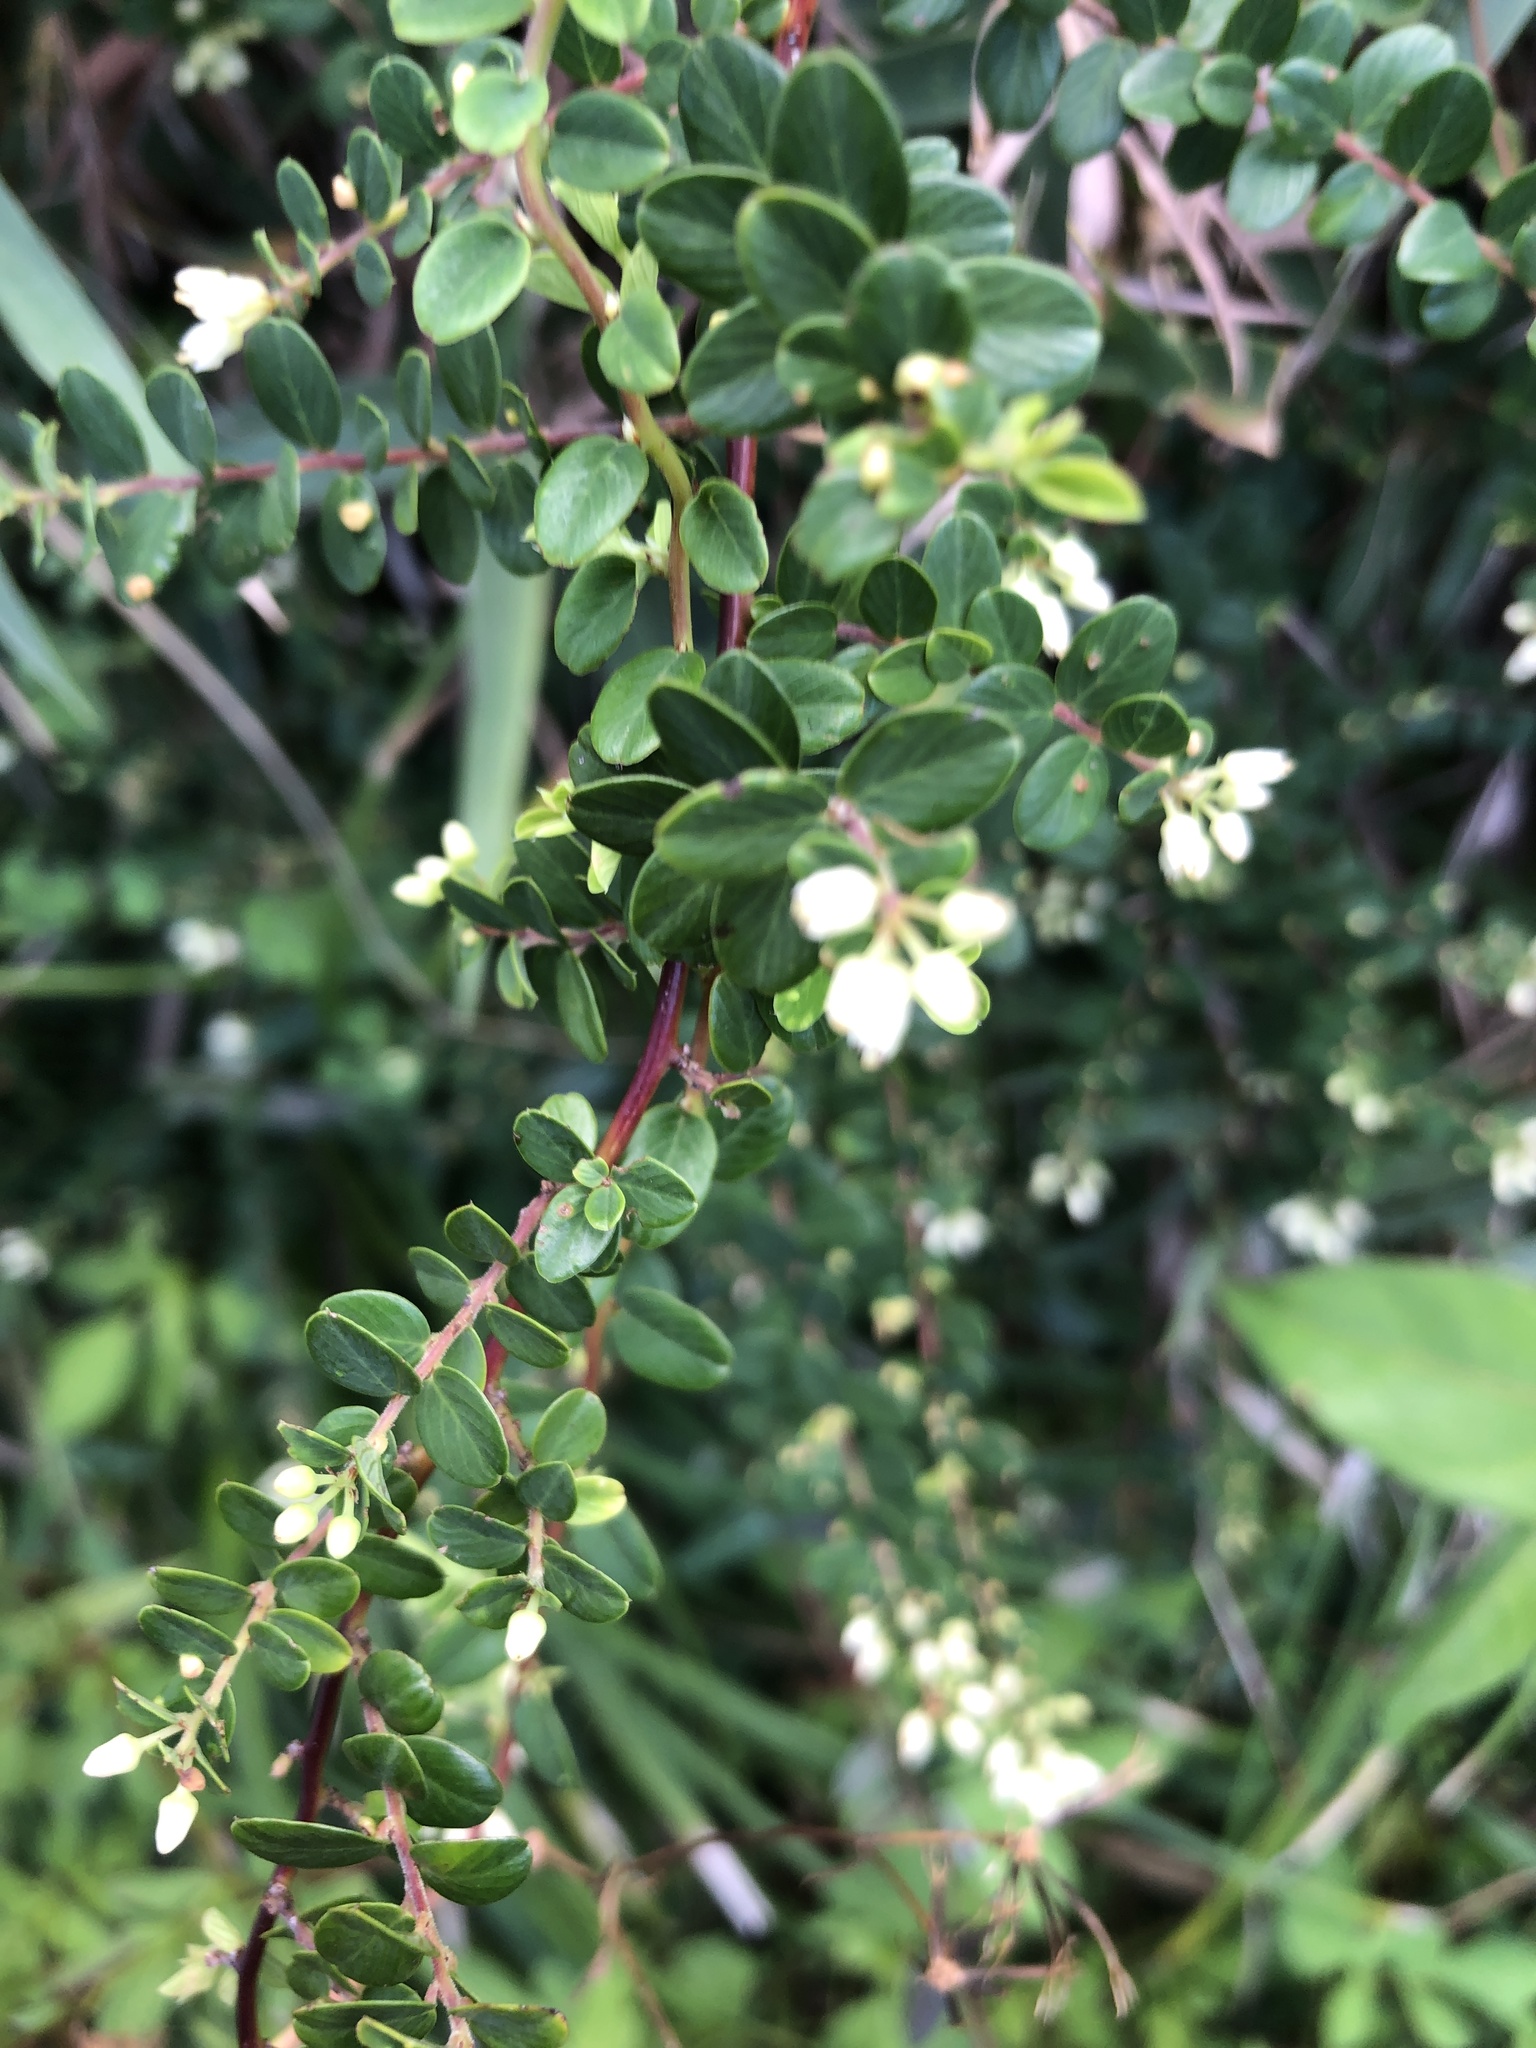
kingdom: Plantae
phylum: Tracheophyta
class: Magnoliopsida
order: Rosales
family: Rhamnaceae
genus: Berchemia
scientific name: Berchemia lineata
